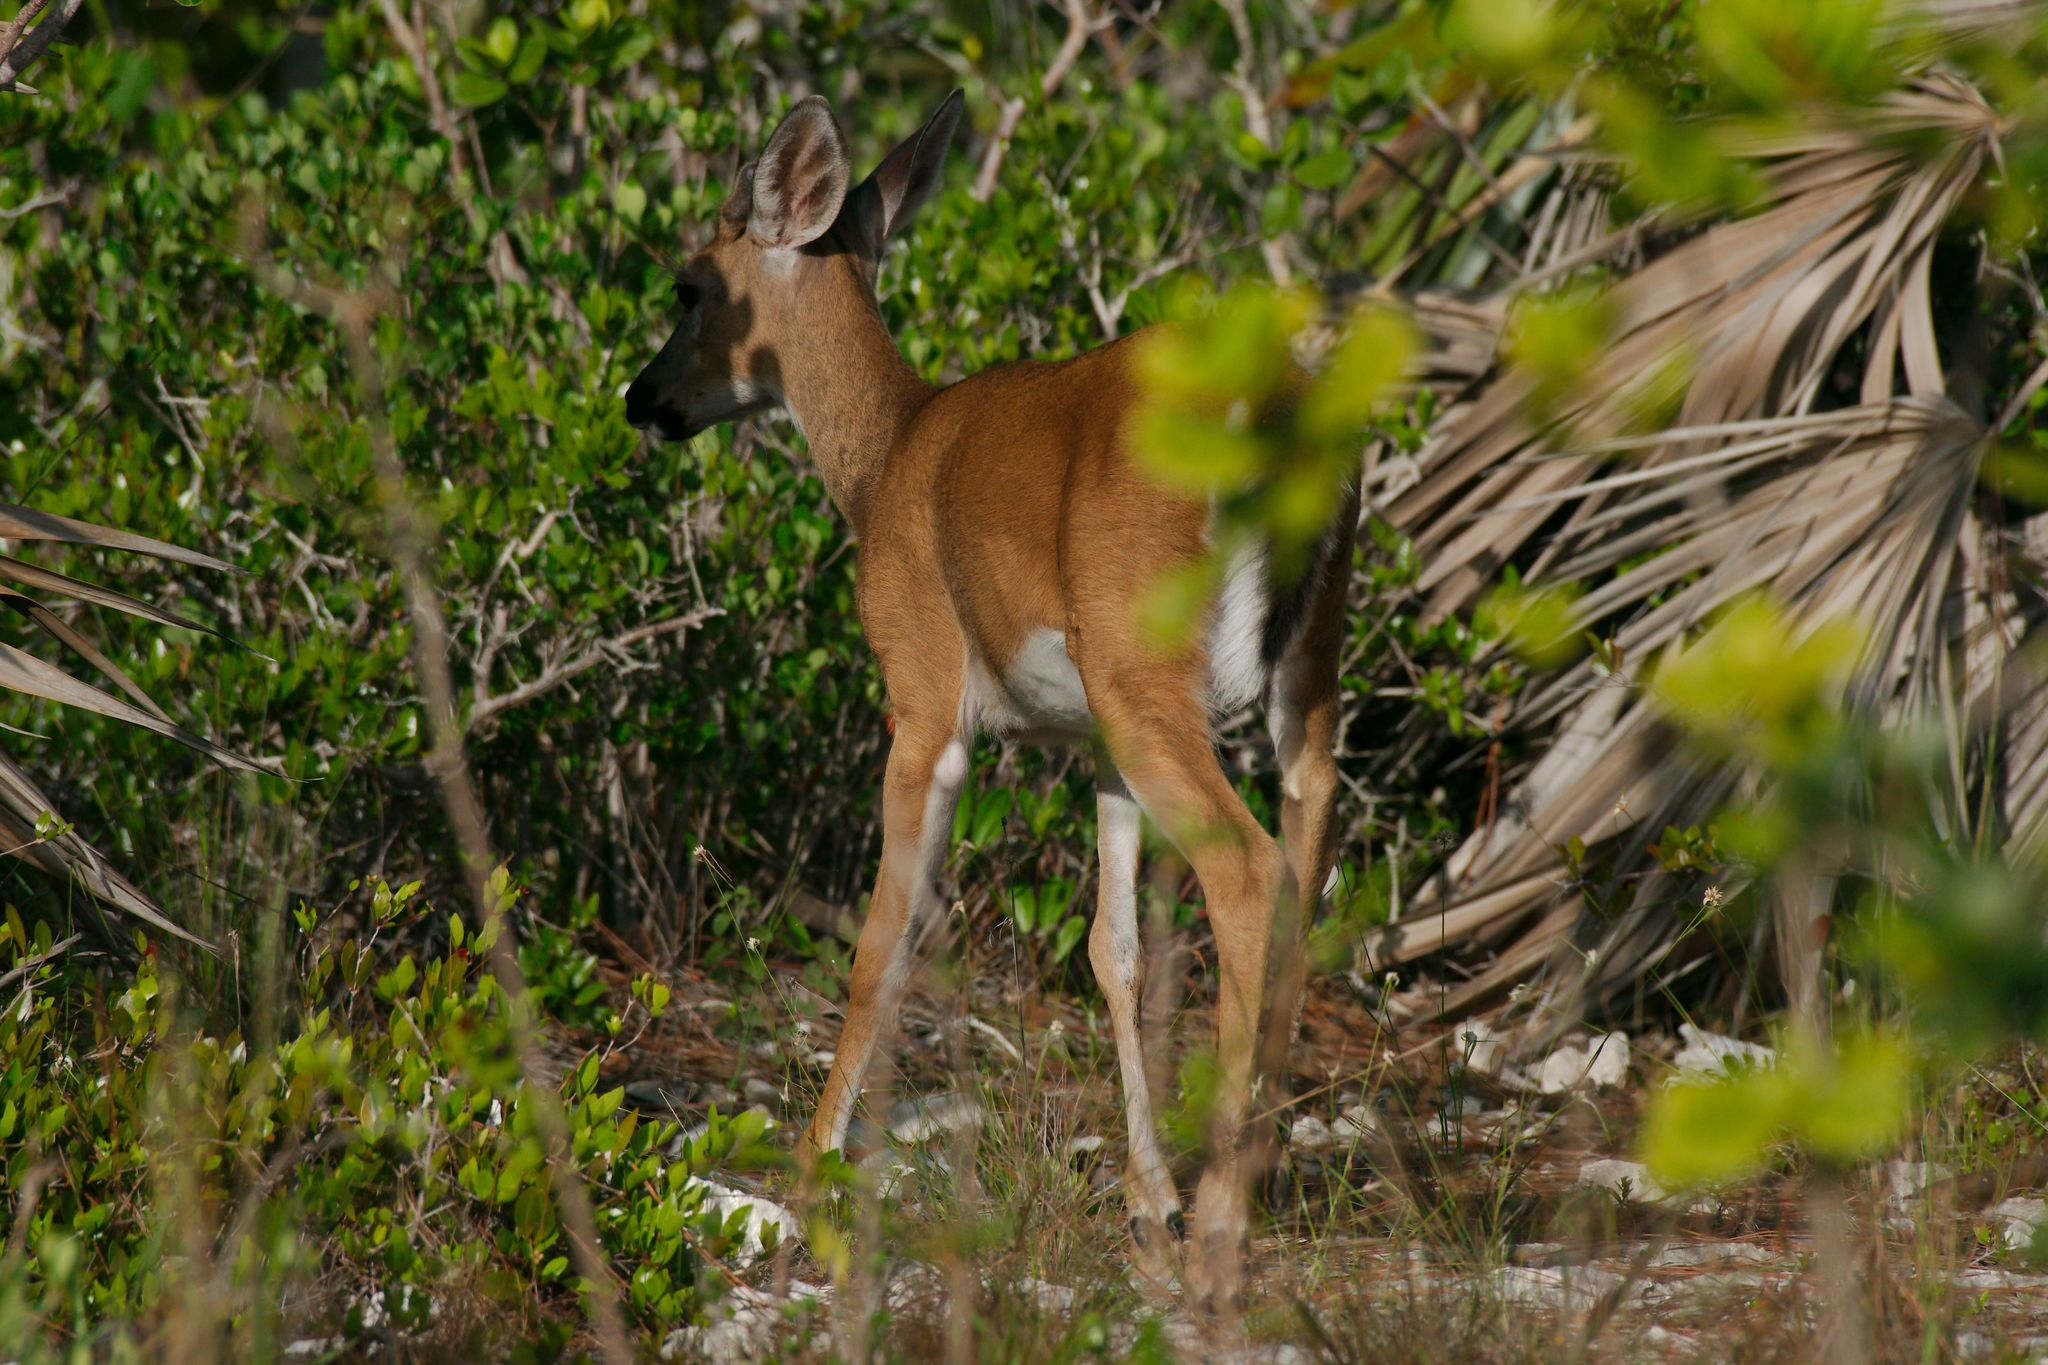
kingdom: Animalia
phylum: Chordata
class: Mammalia
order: Artiodactyla
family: Cervidae
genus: Odocoileus
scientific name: Odocoileus virginianus
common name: White-tailed deer
